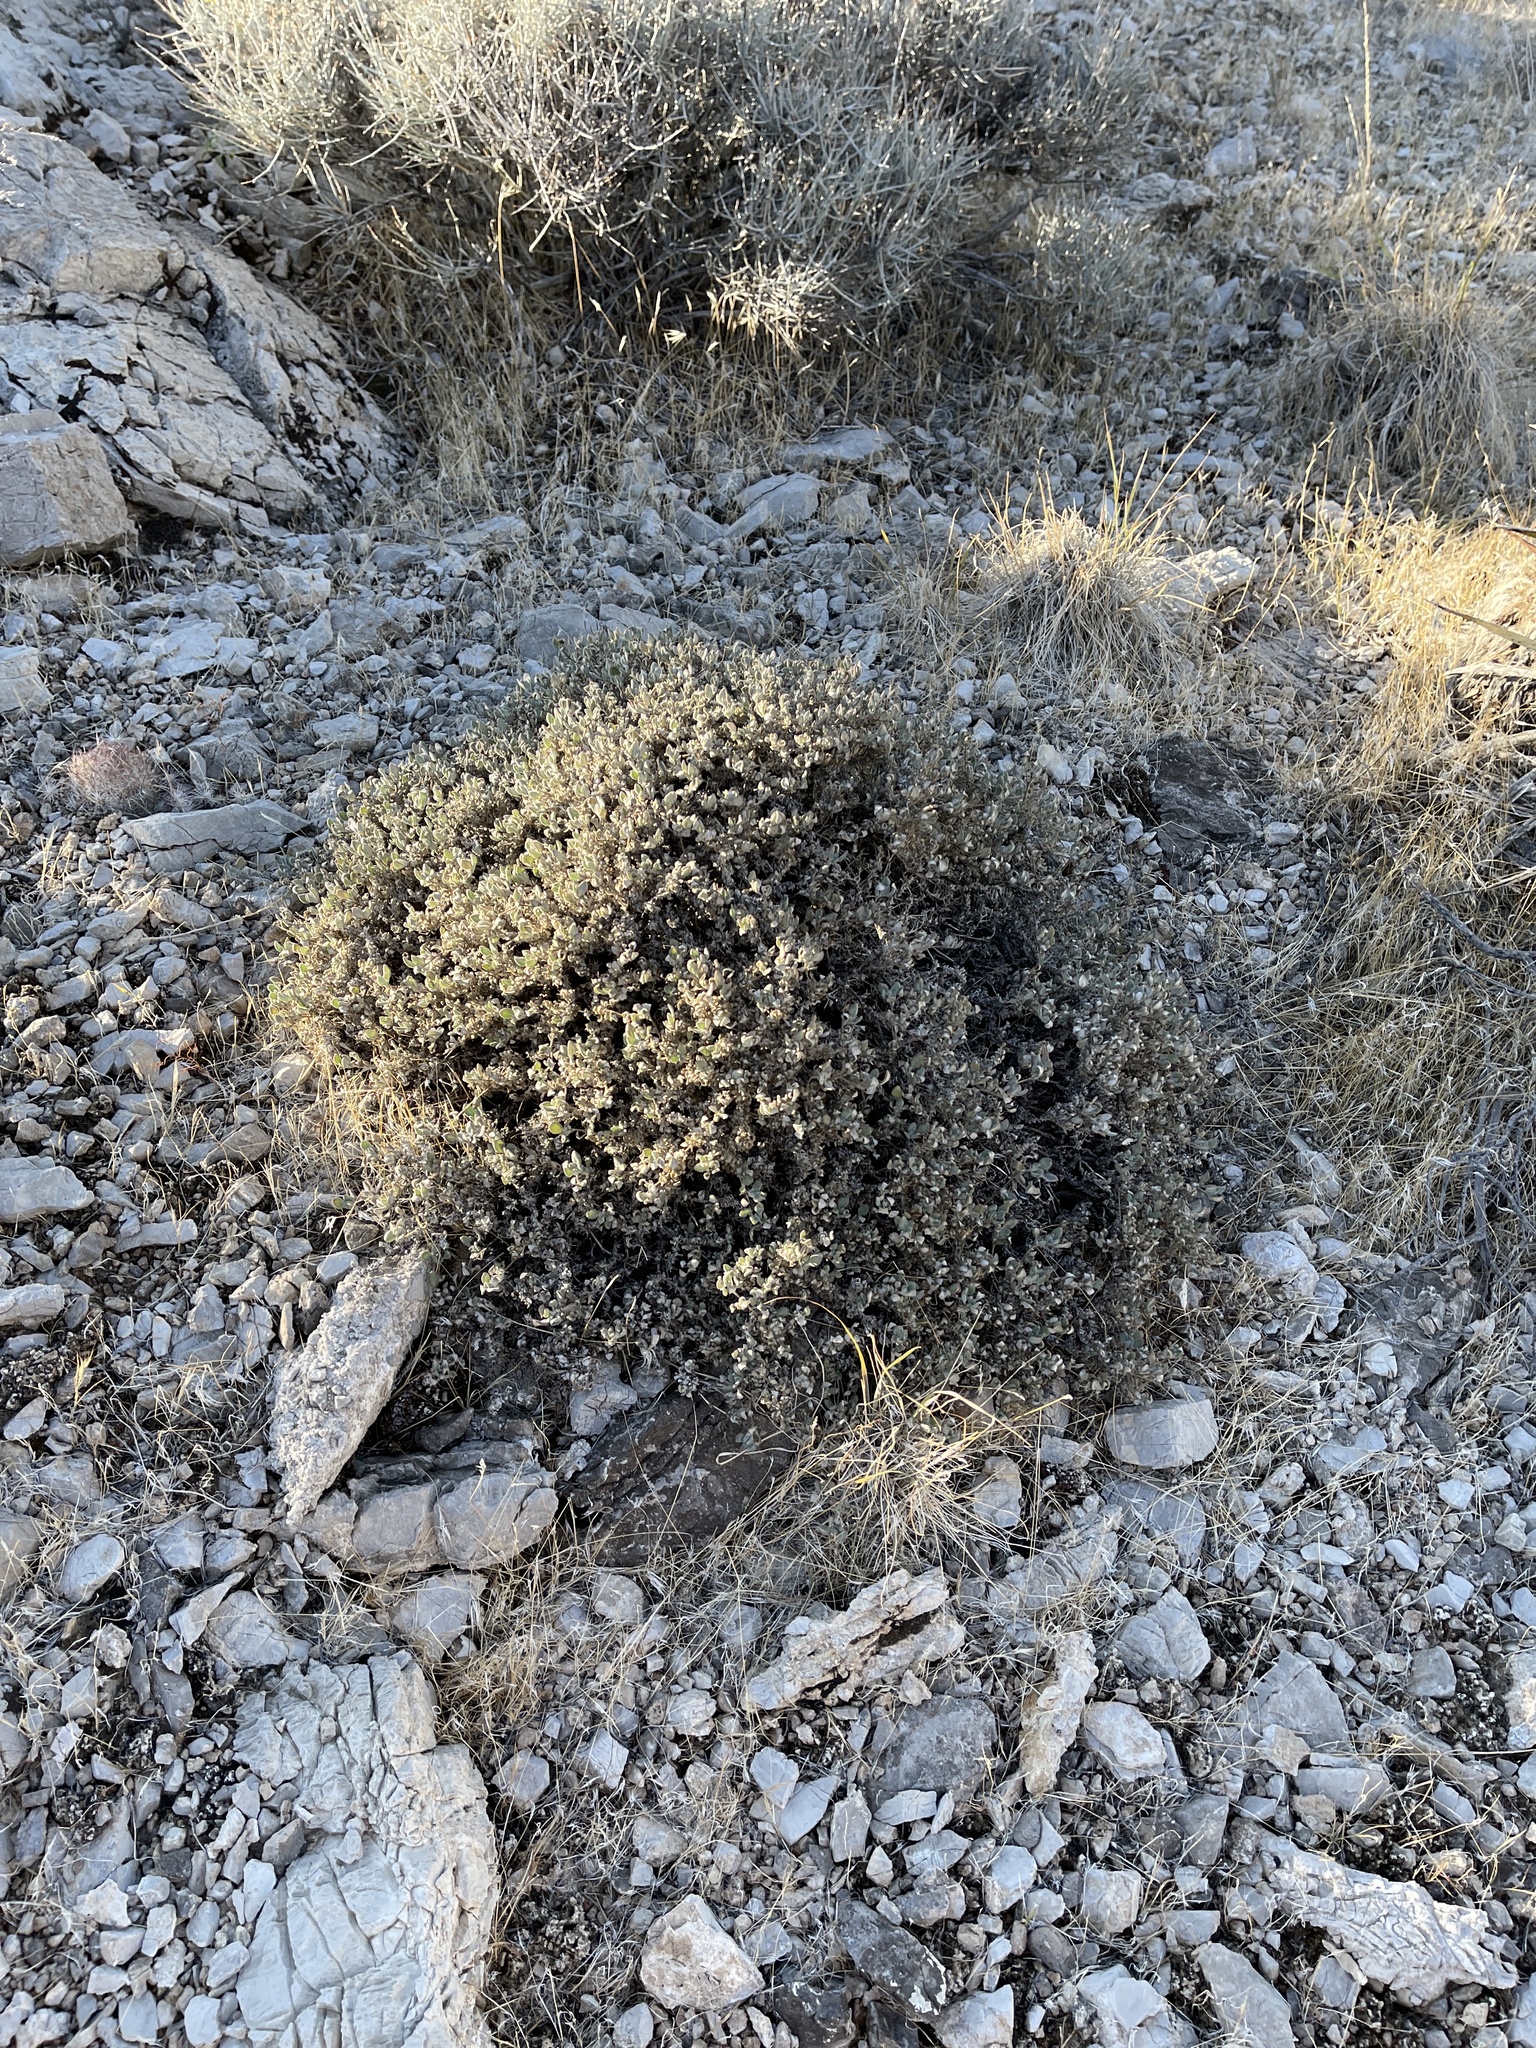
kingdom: Plantae
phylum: Tracheophyta
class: Magnoliopsida
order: Boraginales
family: Ehretiaceae
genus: Tiquilia
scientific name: Tiquilia canescens
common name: Hairy tiquilia
